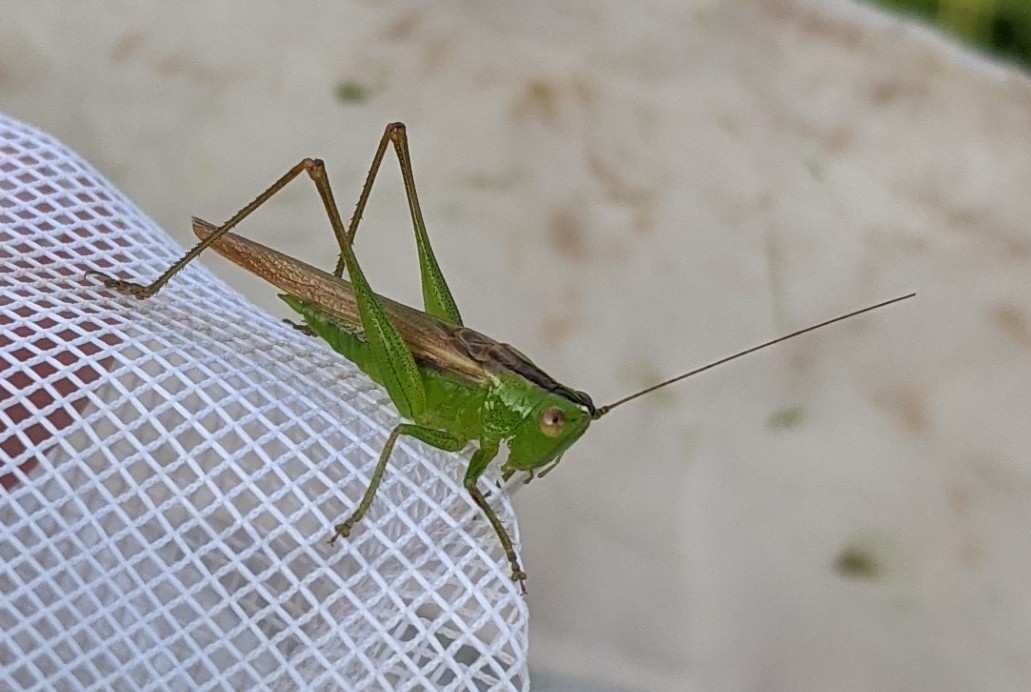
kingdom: Animalia
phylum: Arthropoda
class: Insecta
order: Orthoptera
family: Tettigoniidae
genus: Conocephalus
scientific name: Conocephalus fasciatus
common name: Slender meadow katydid
